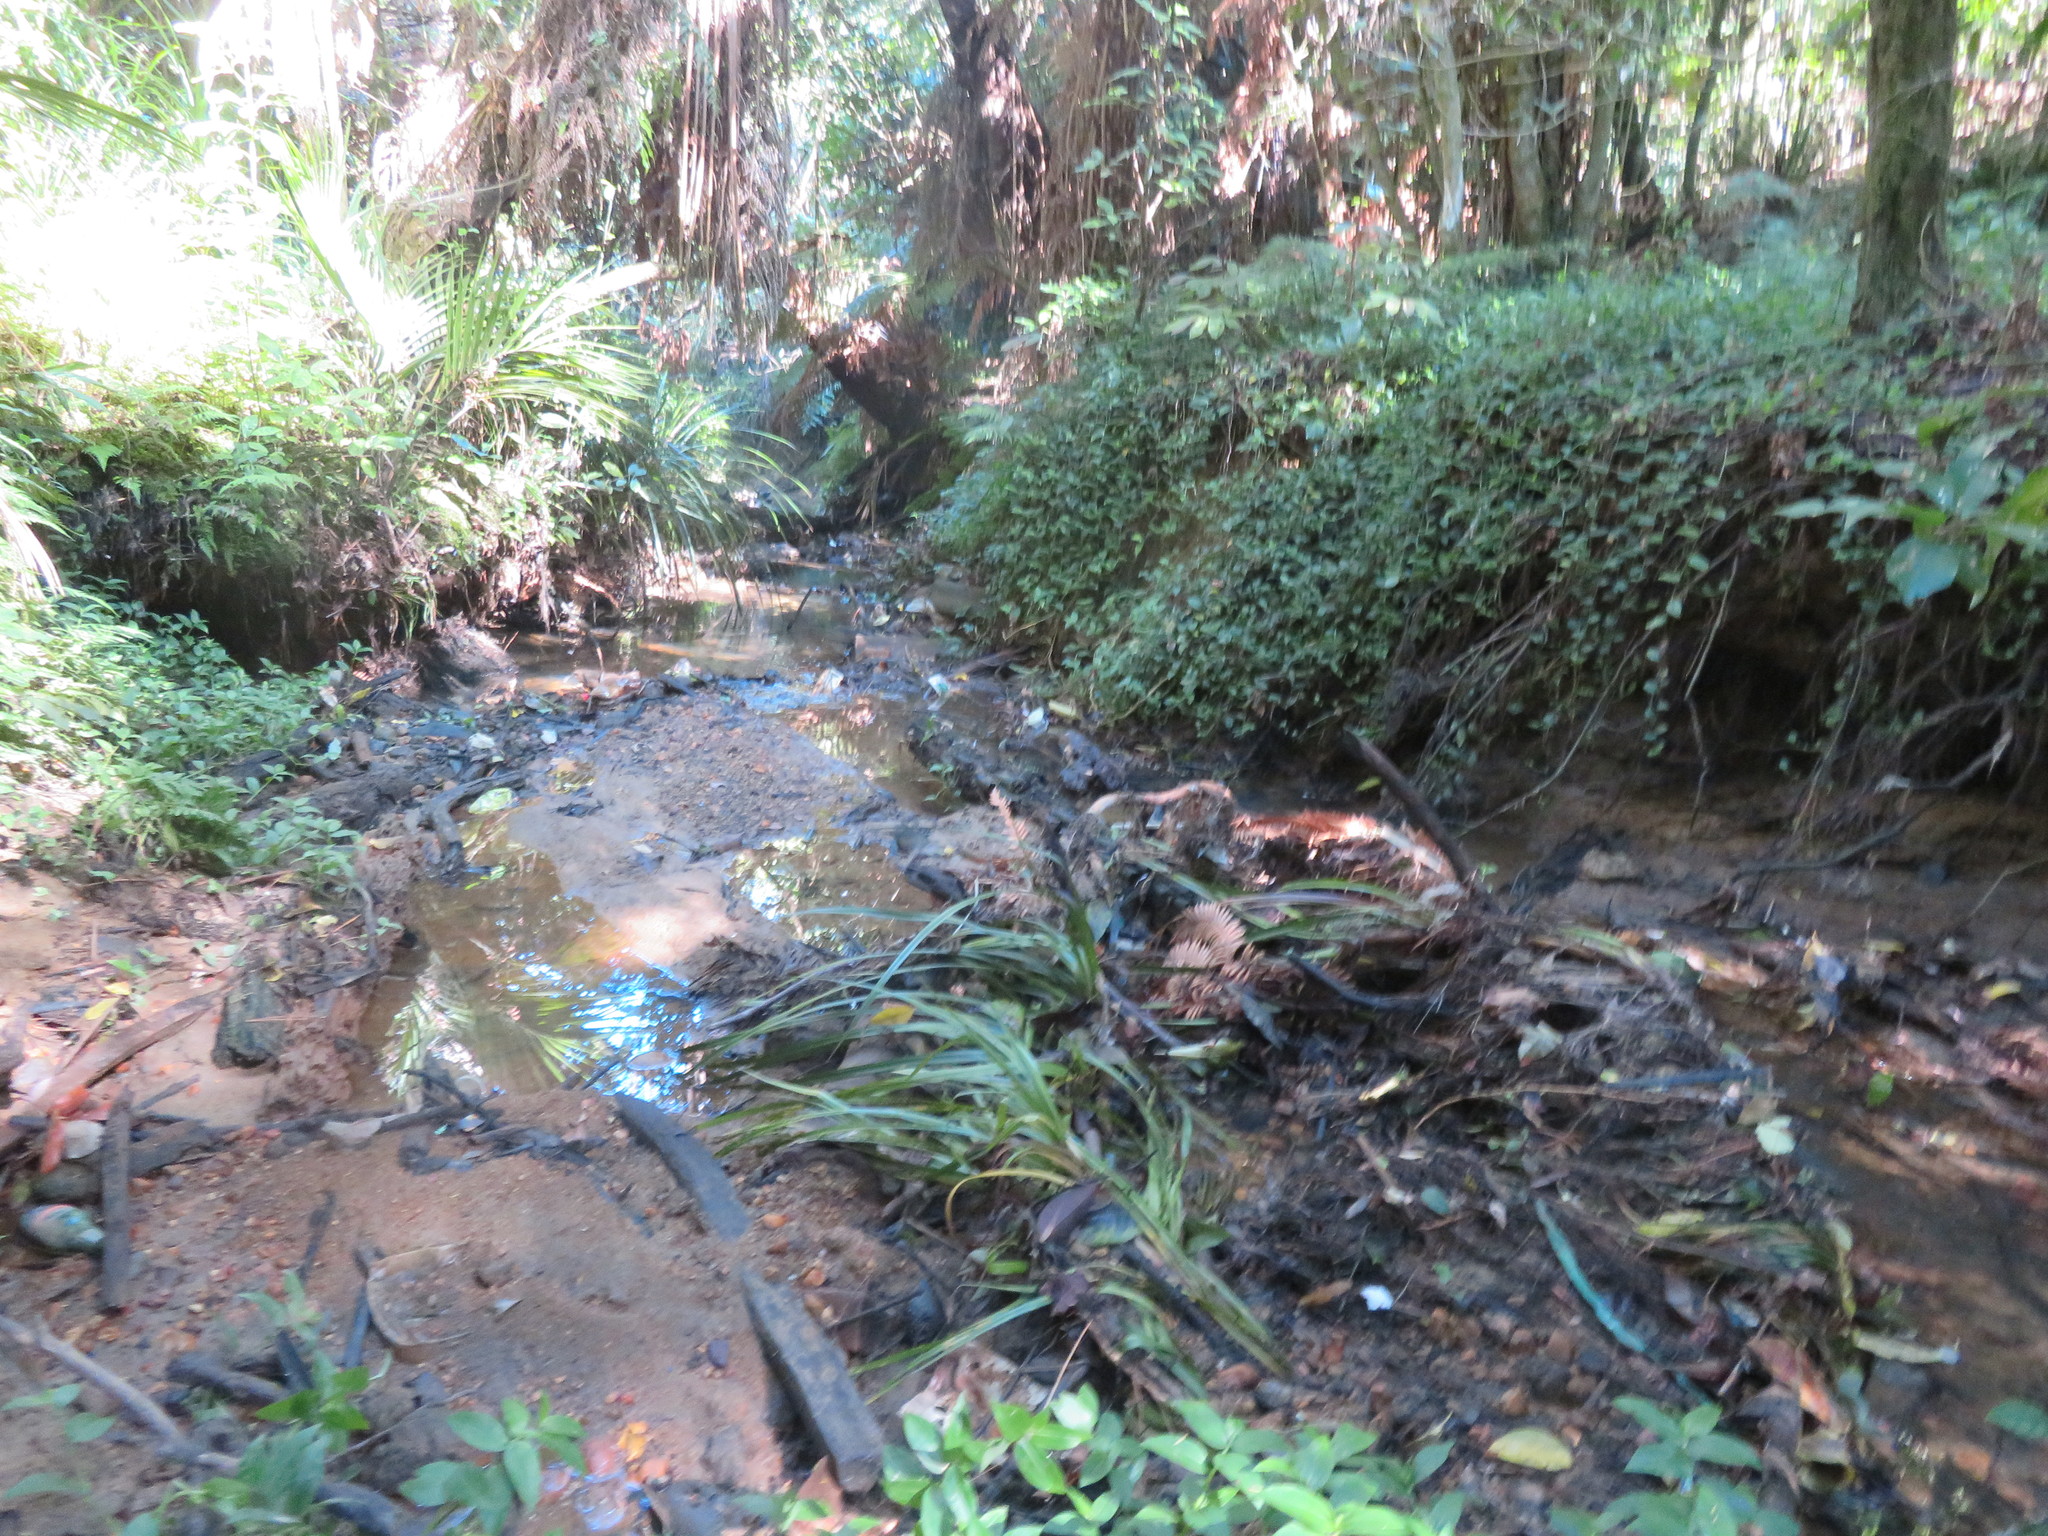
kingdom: Plantae
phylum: Tracheophyta
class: Liliopsida
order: Pandanales
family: Pandanaceae
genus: Freycinetia
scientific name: Freycinetia banksii
